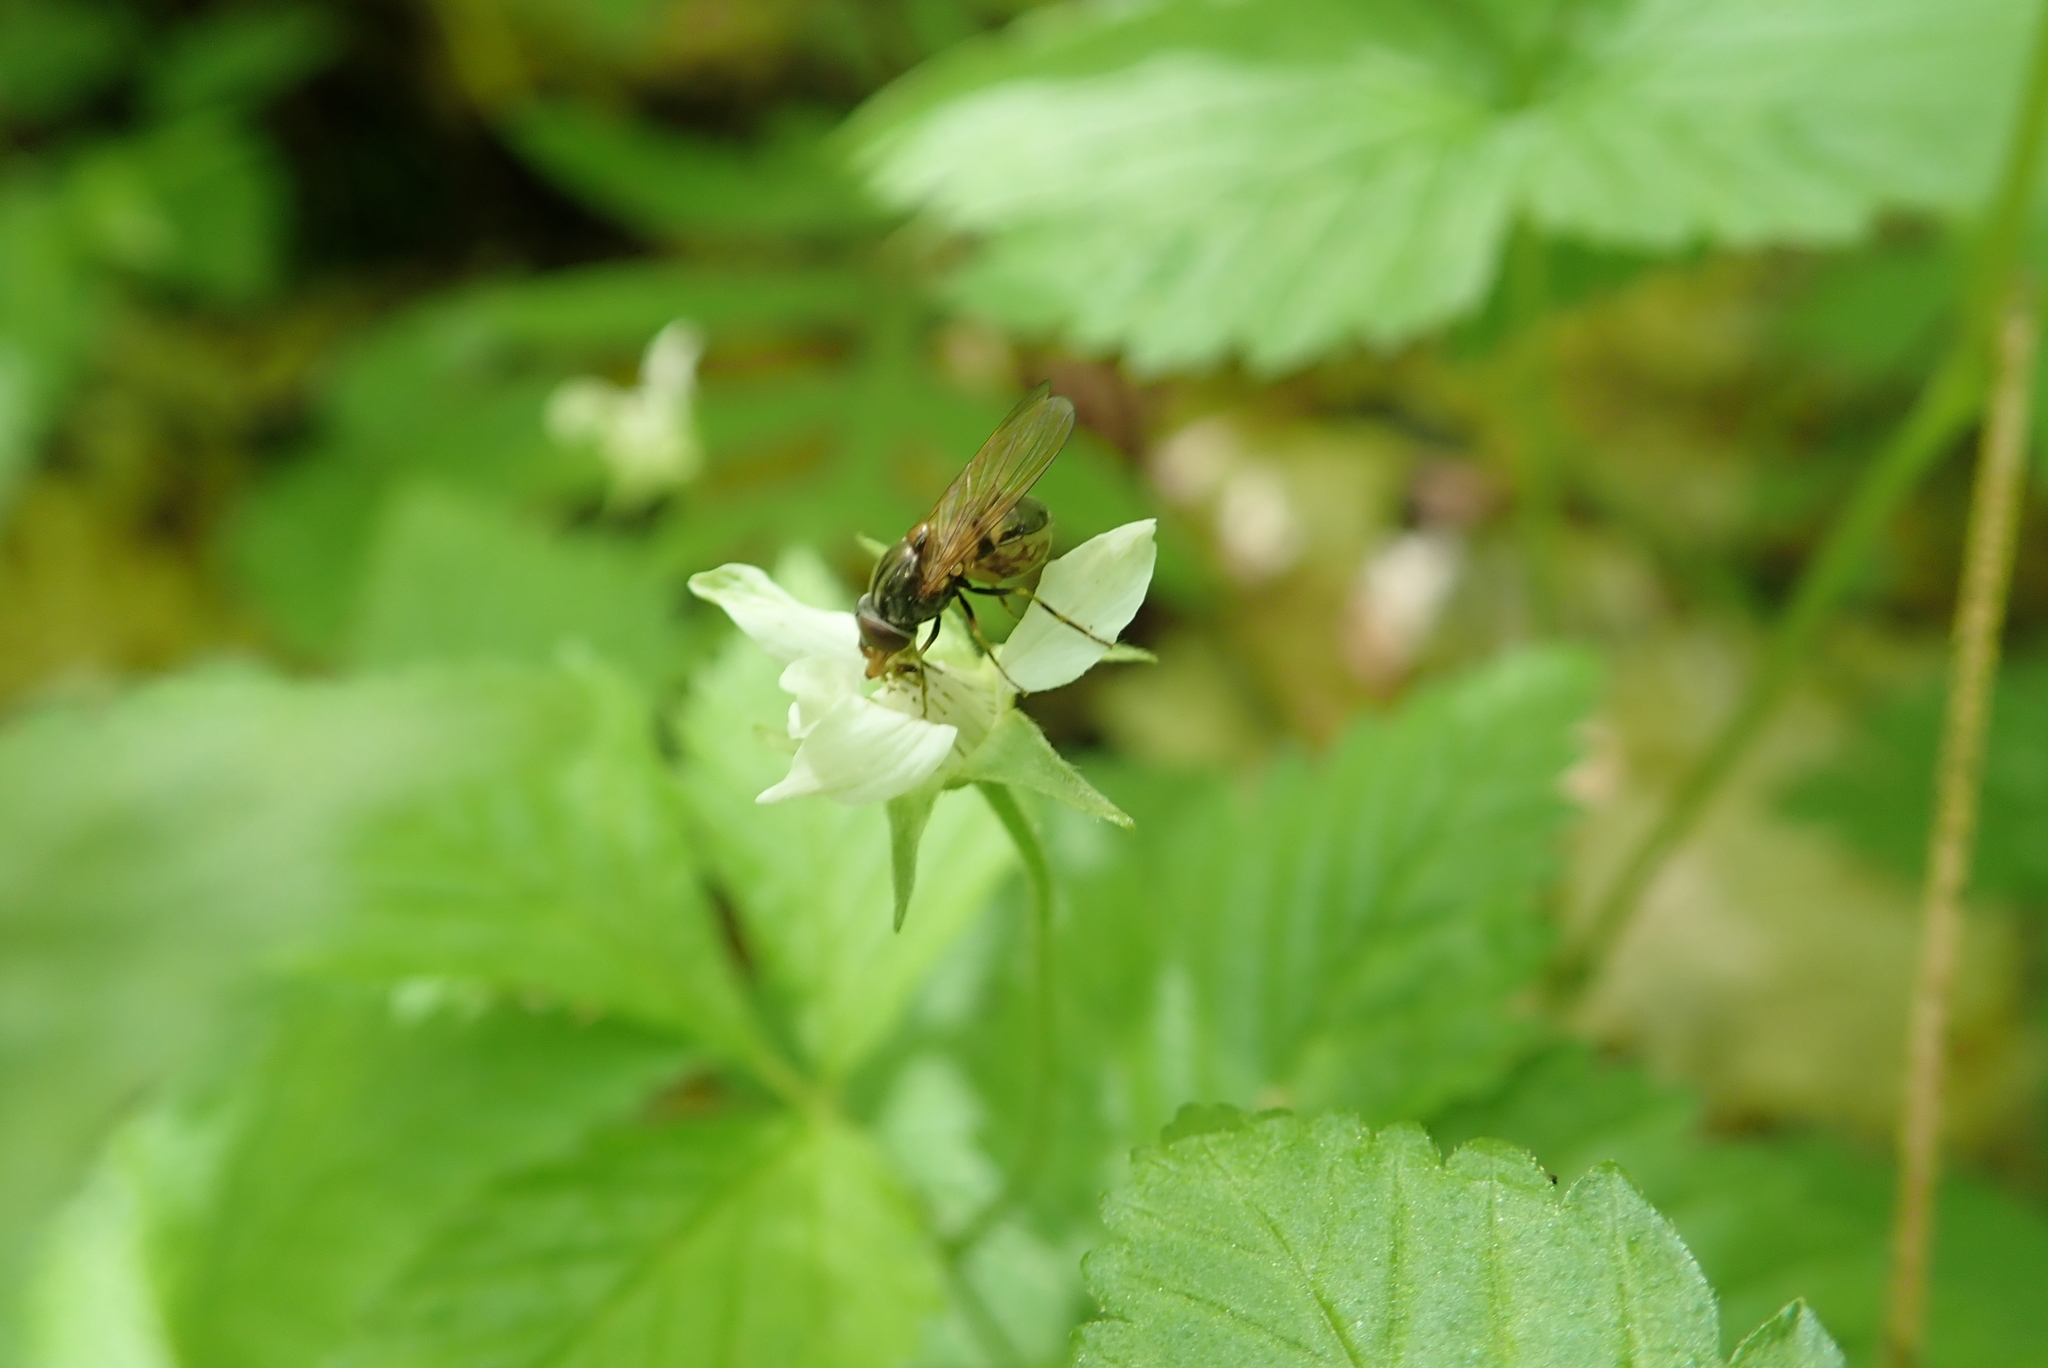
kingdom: Animalia
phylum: Arthropoda
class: Insecta
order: Diptera
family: Syrphidae
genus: Rhingia
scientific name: Rhingia nasica
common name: American snout fly
